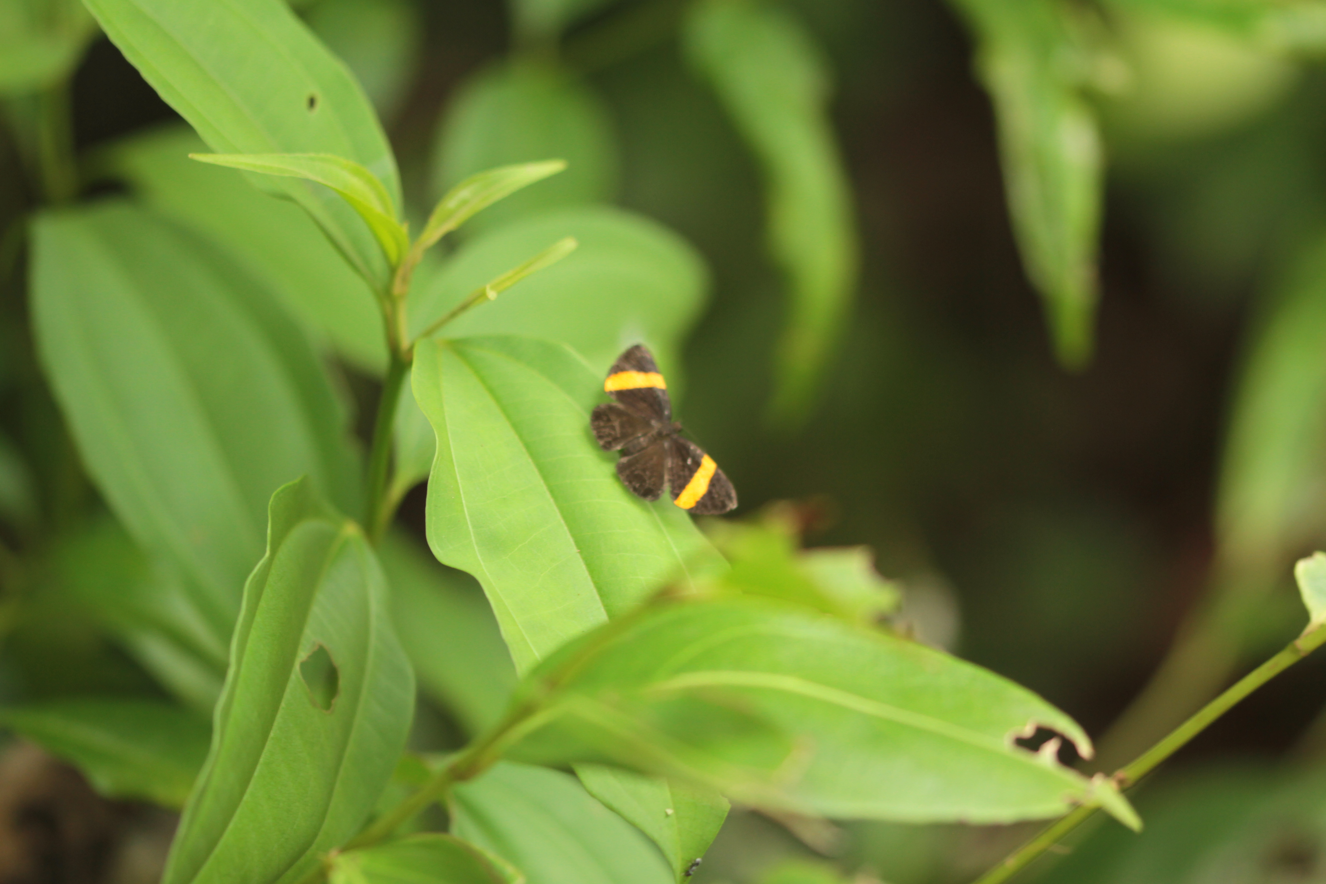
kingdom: Animalia
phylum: Arthropoda
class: Insecta
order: Lepidoptera
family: Riodinidae
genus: Pirascca
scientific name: Pirascca sagaris
